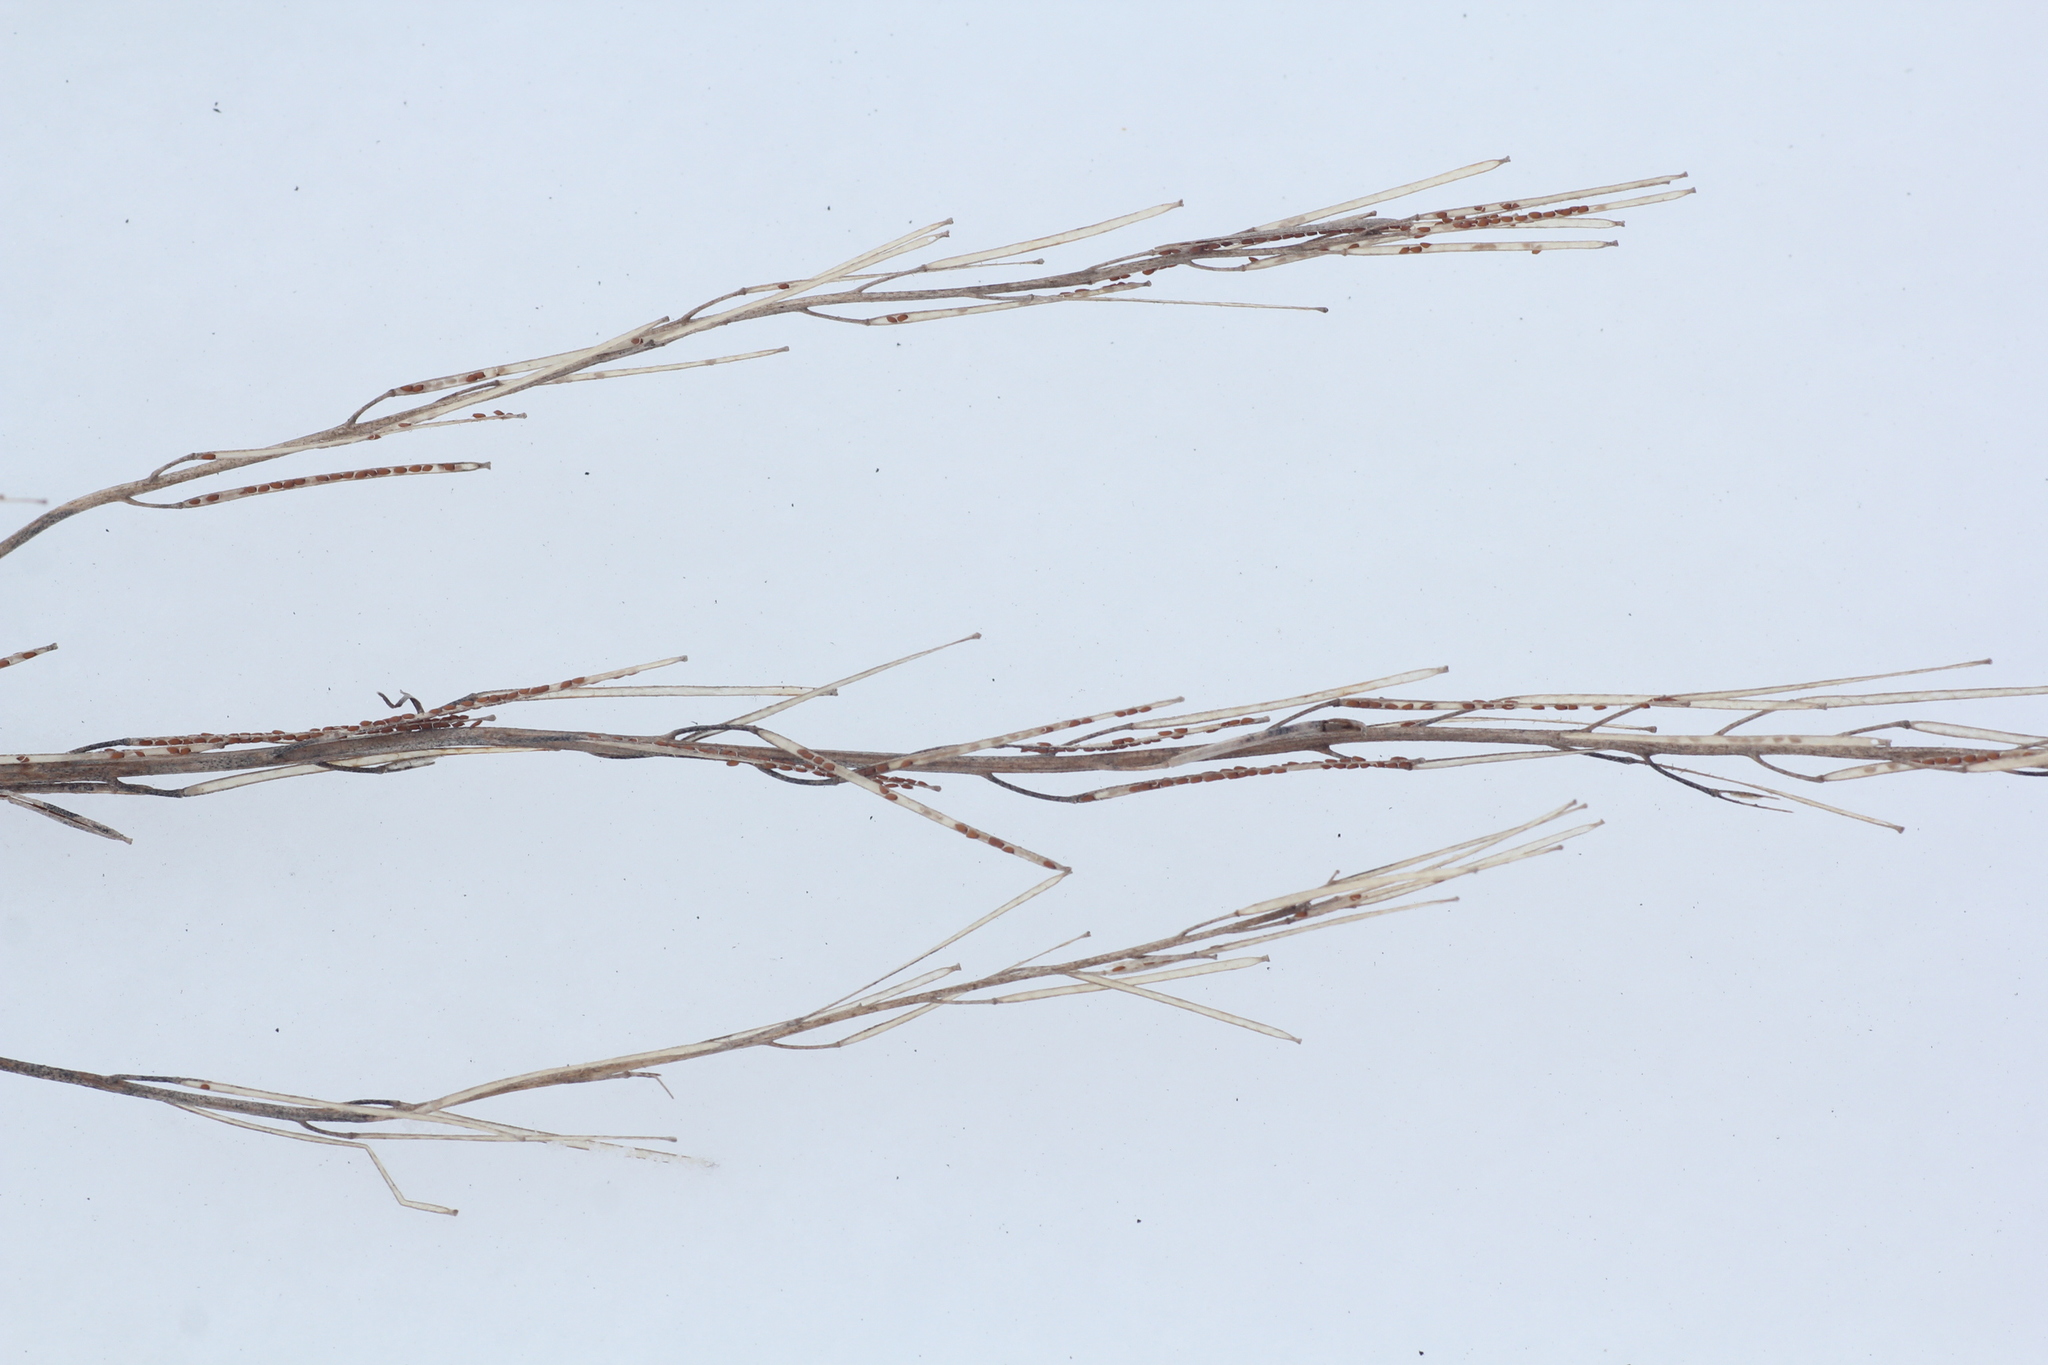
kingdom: Plantae
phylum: Tracheophyta
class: Magnoliopsida
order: Brassicales
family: Brassicaceae
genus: Sisymbrium
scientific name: Sisymbrium loeselii
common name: False london-rocket
